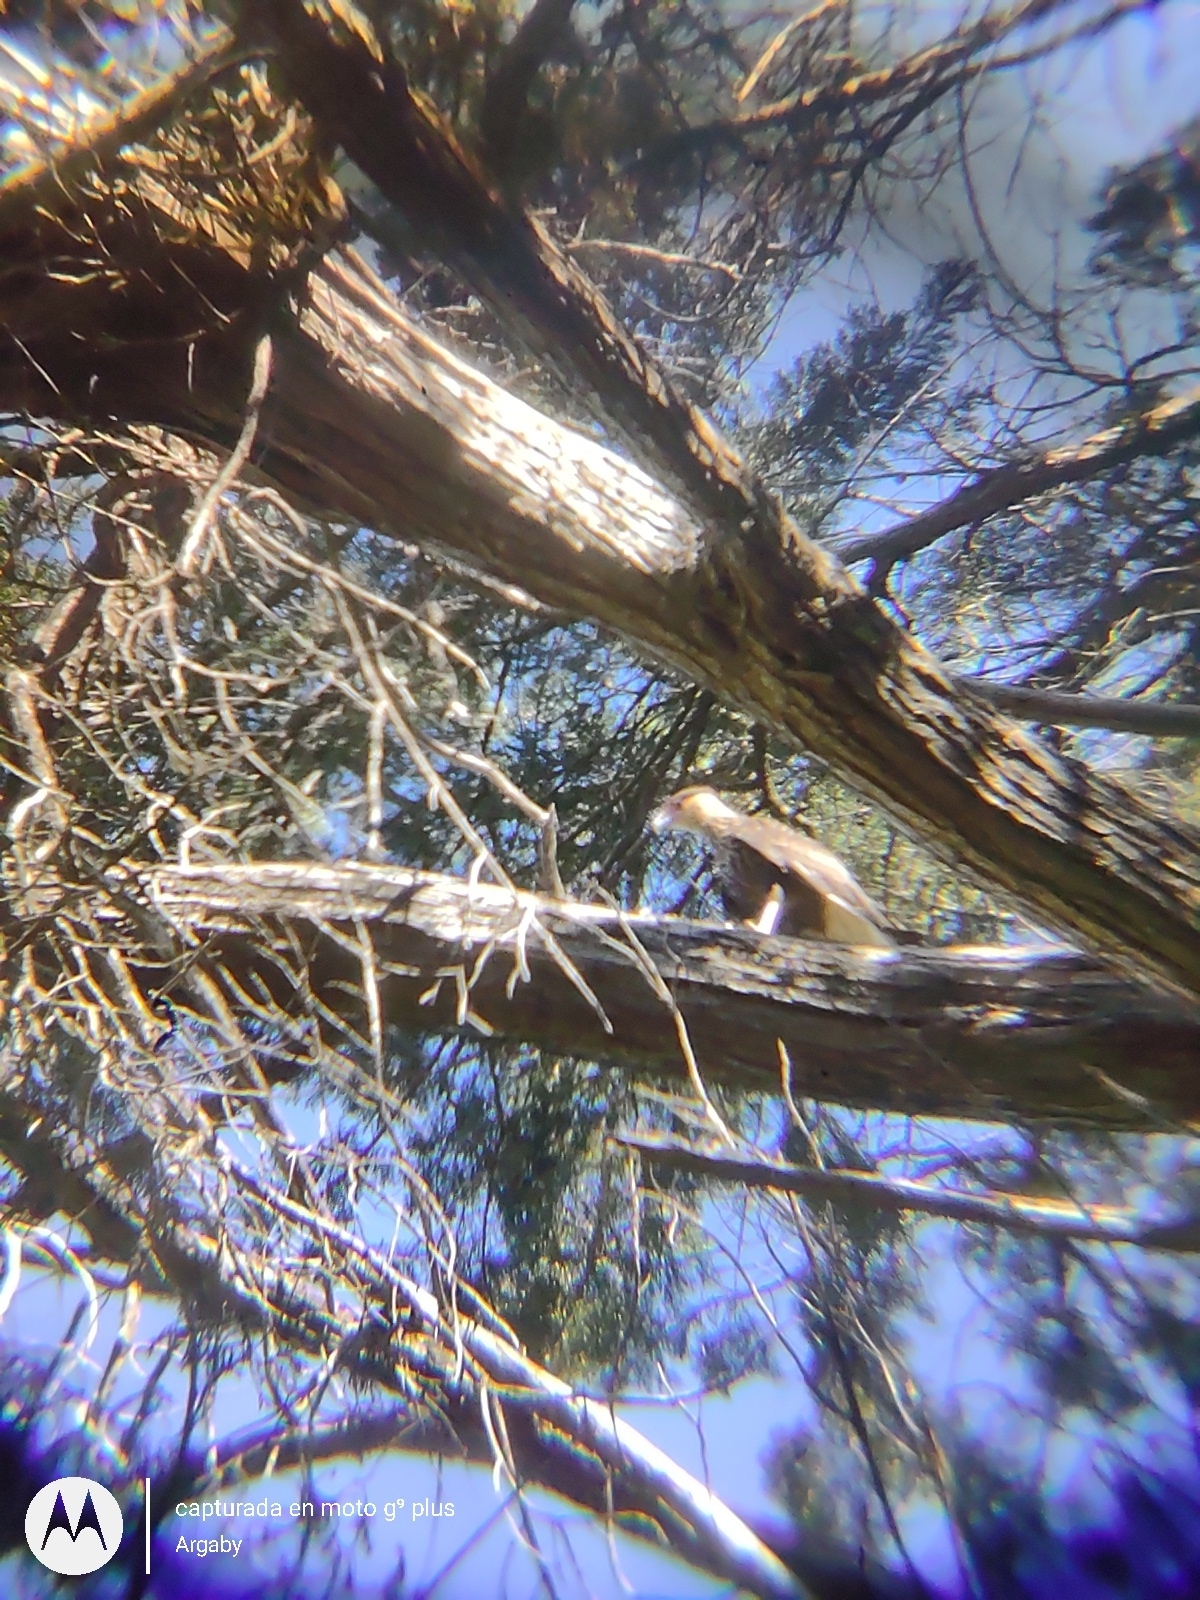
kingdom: Animalia
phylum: Chordata
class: Aves
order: Falconiformes
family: Falconidae
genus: Caracara
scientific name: Caracara plancus
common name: Southern caracara
